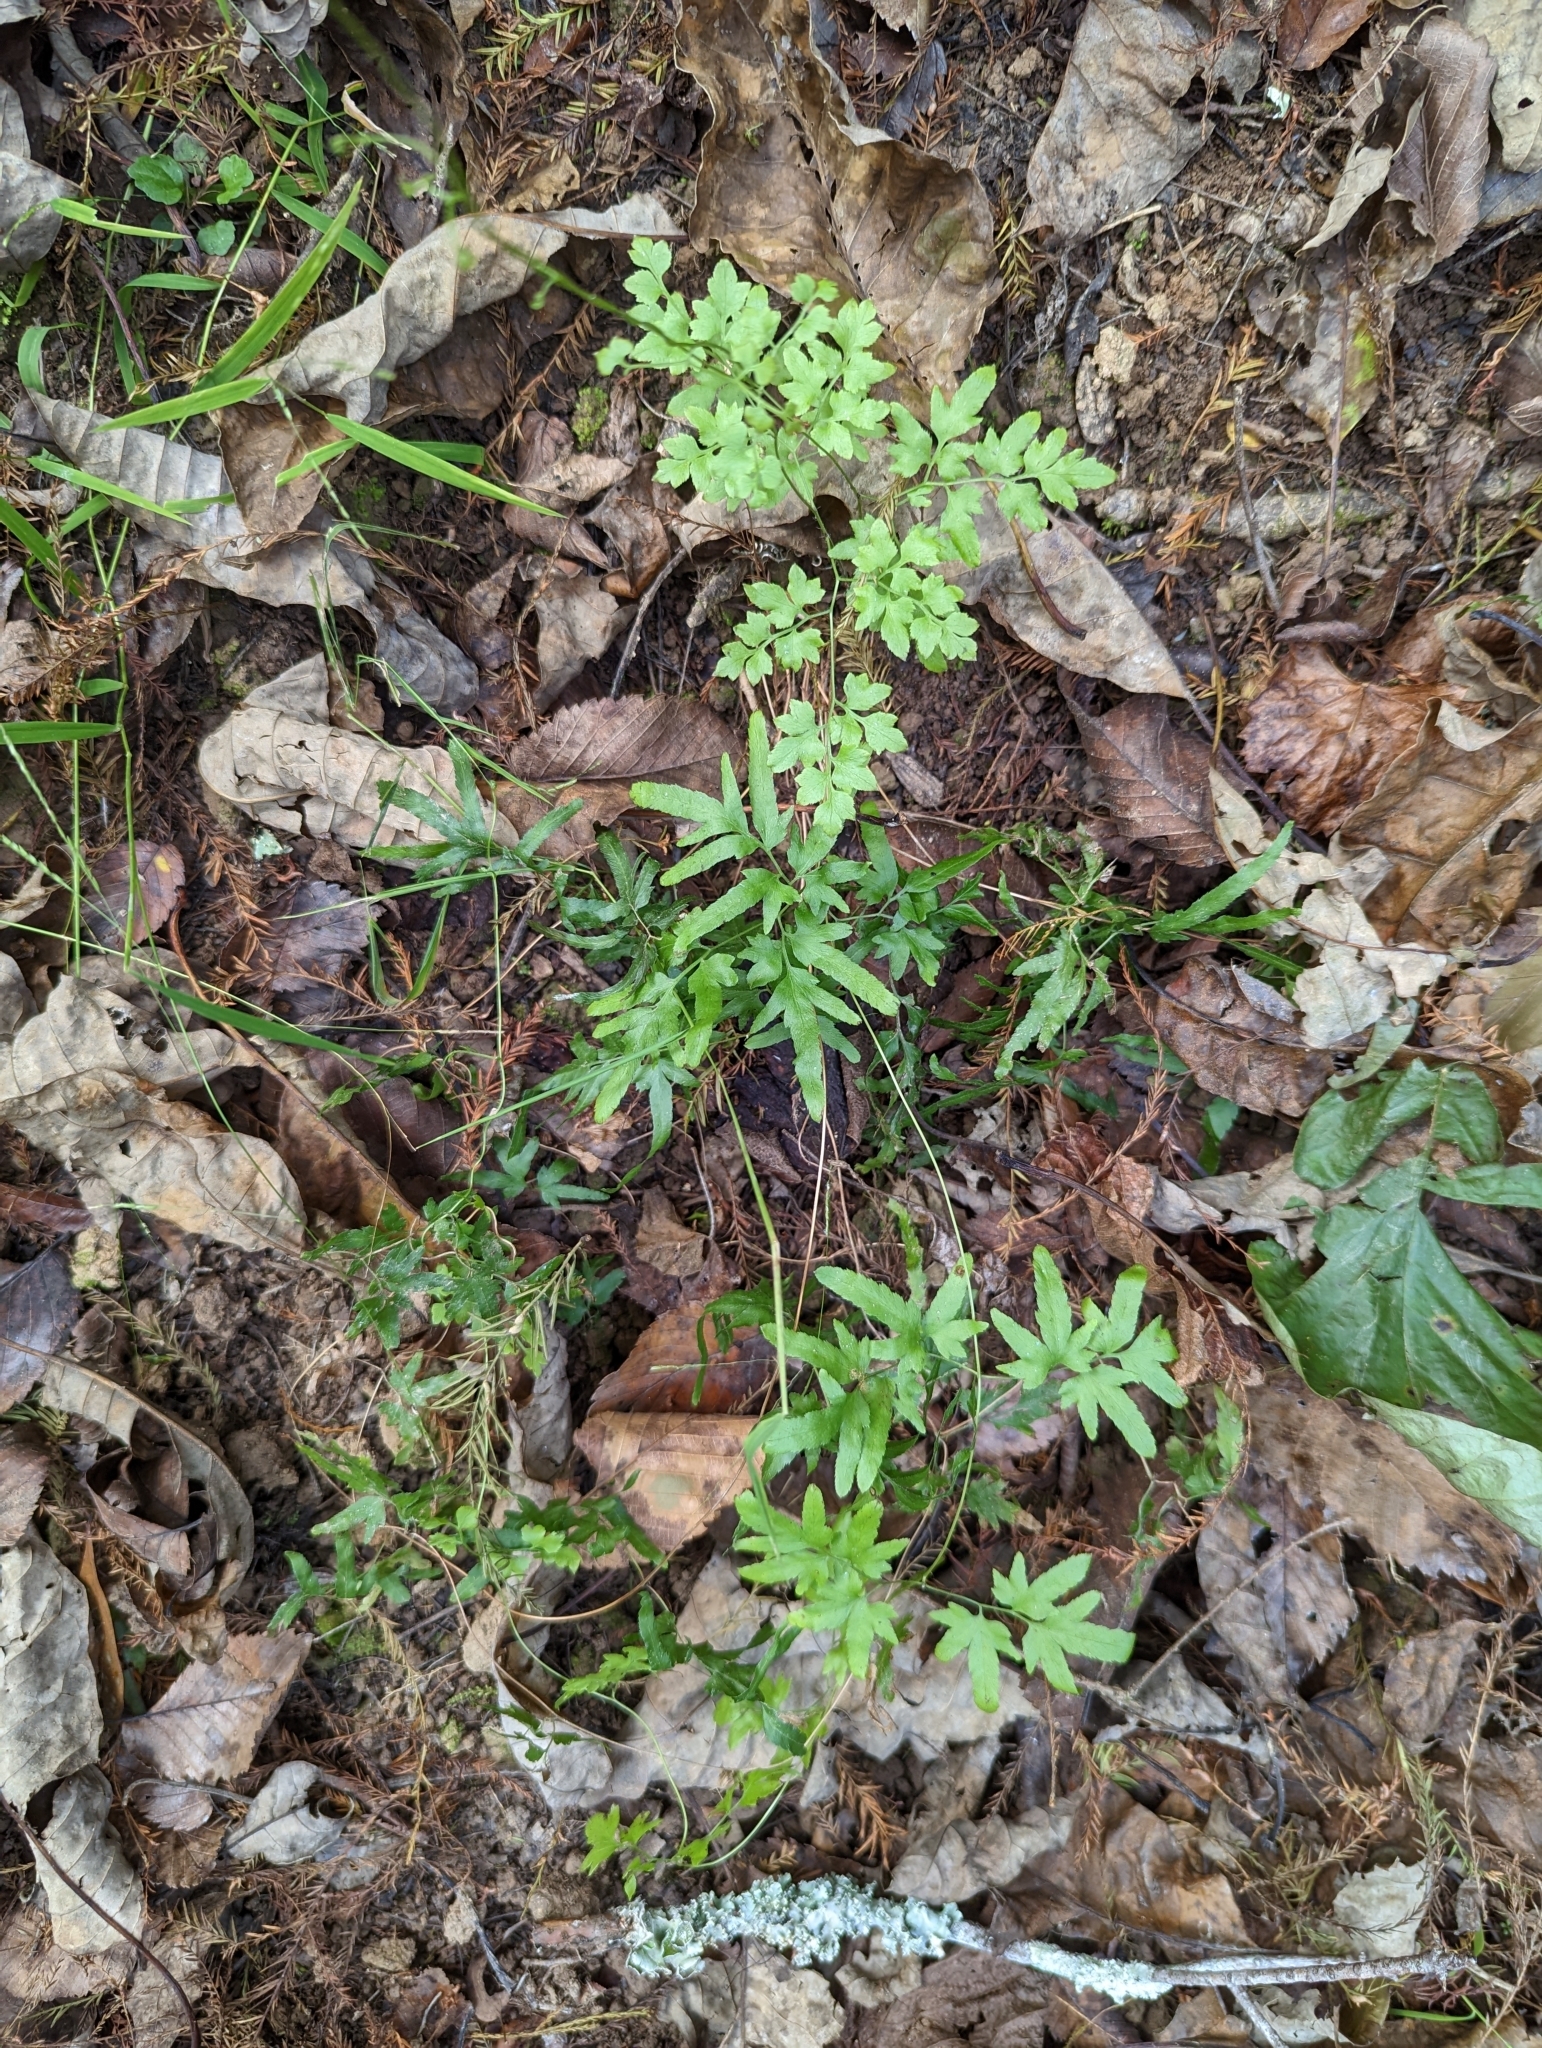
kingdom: Plantae
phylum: Tracheophyta
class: Polypodiopsida
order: Schizaeales
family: Lygodiaceae
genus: Lygodium
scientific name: Lygodium japonicum
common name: Japanese climbing fern
